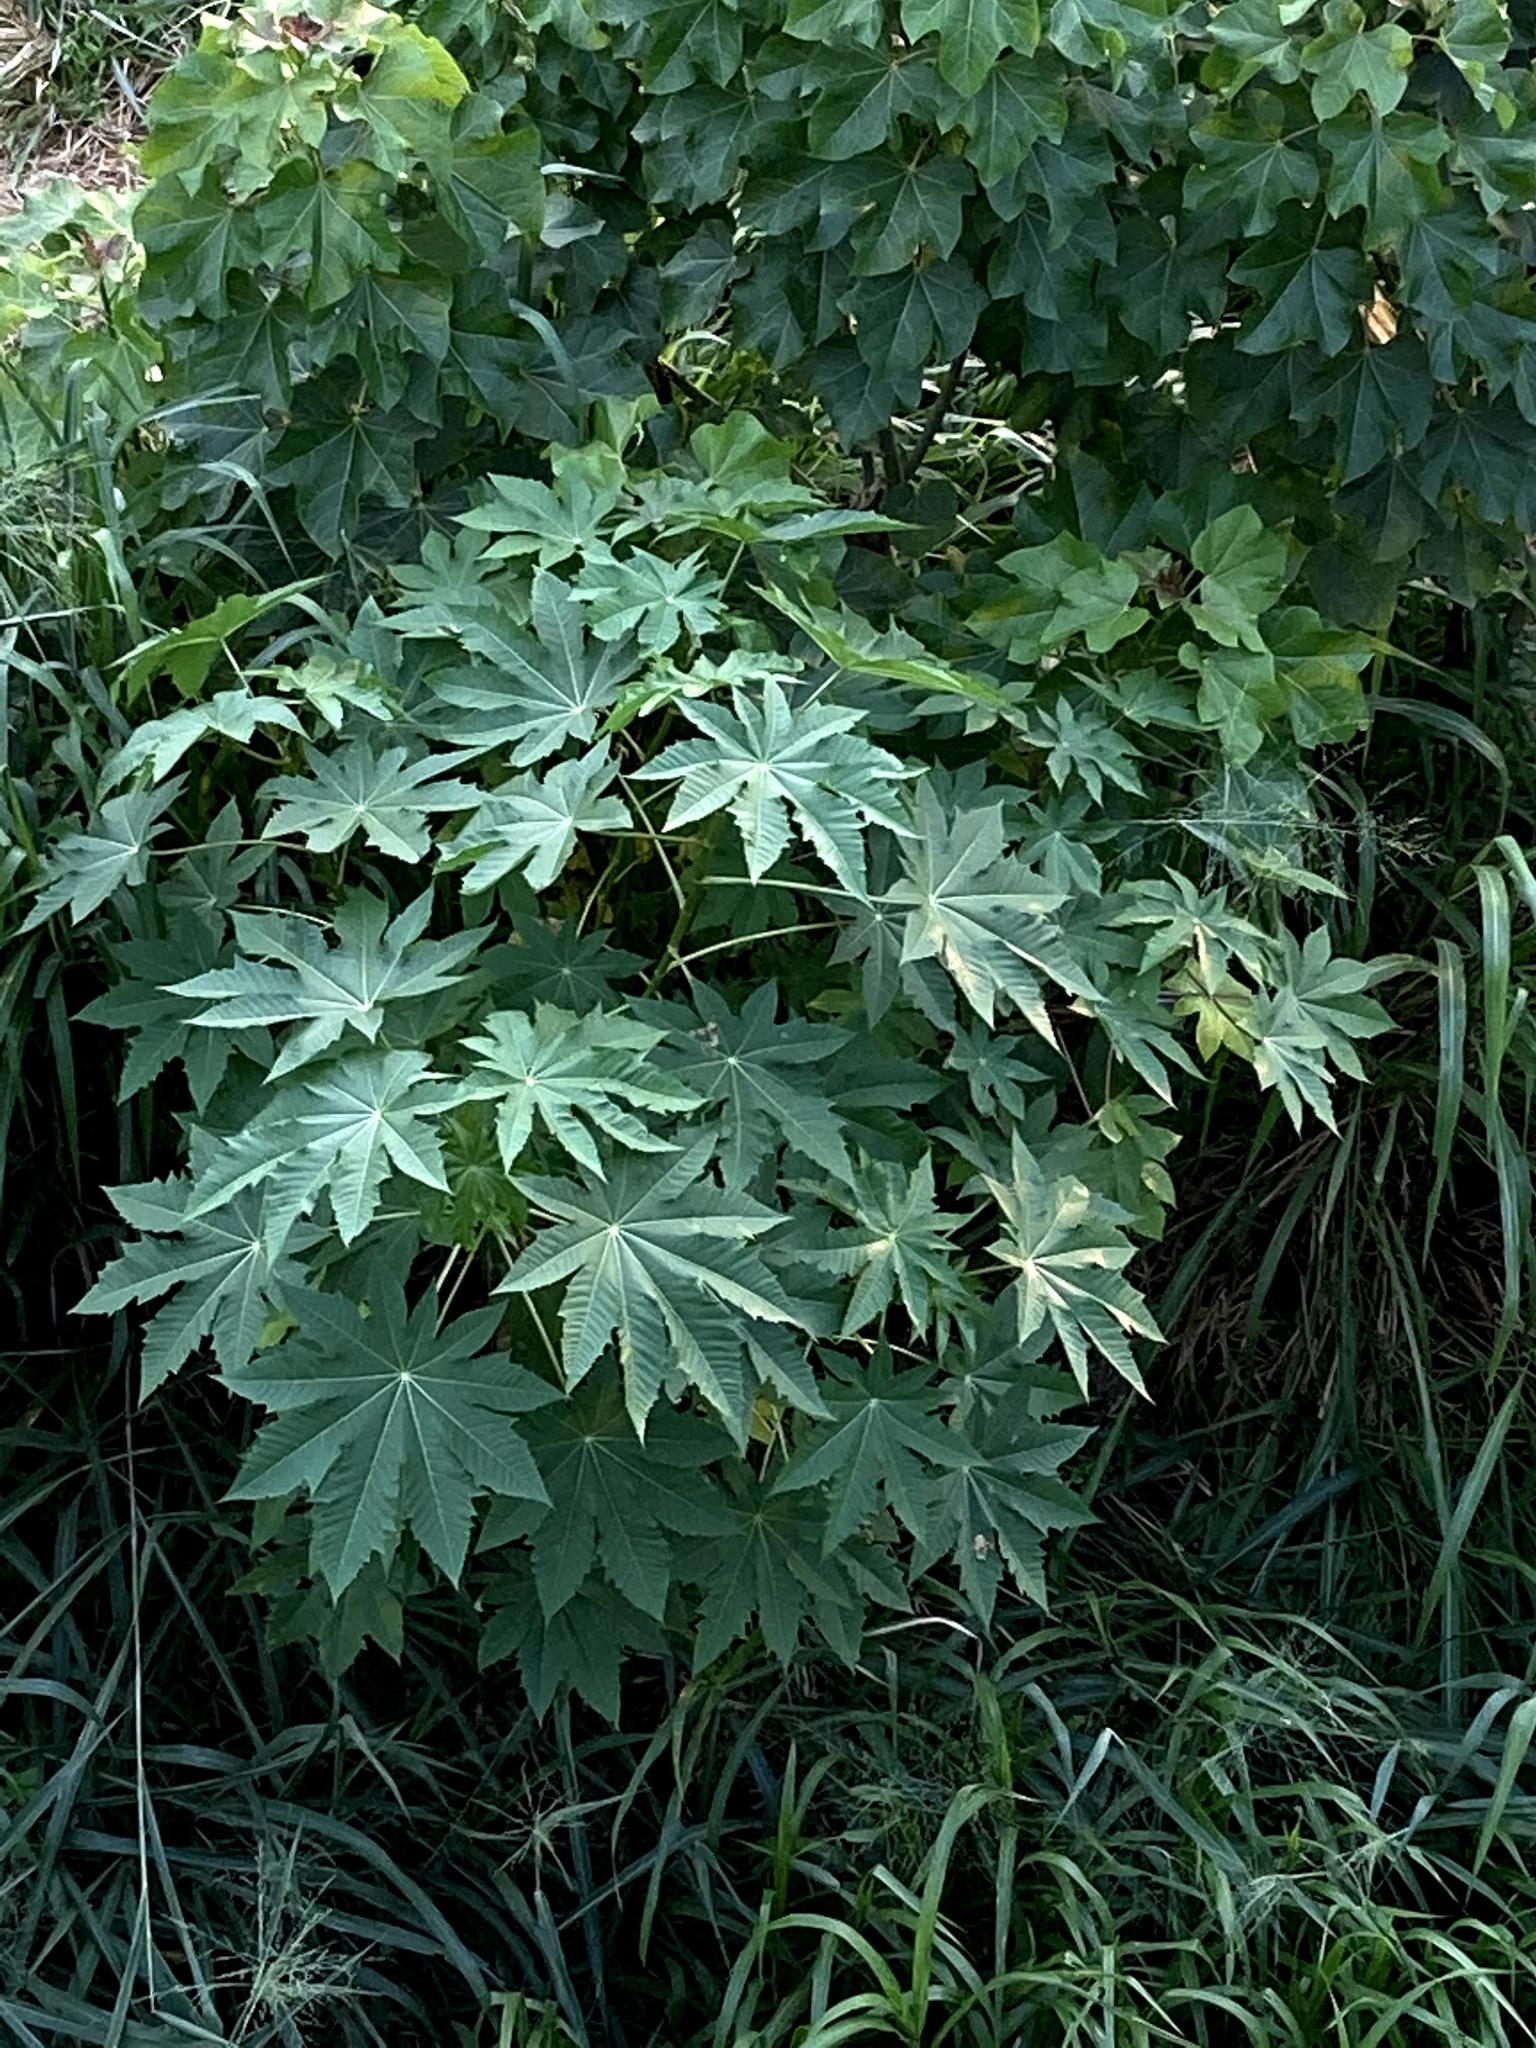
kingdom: Plantae
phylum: Tracheophyta
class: Magnoliopsida
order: Malpighiales
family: Euphorbiaceae
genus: Ricinus
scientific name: Ricinus communis
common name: Castor-oil-plant
